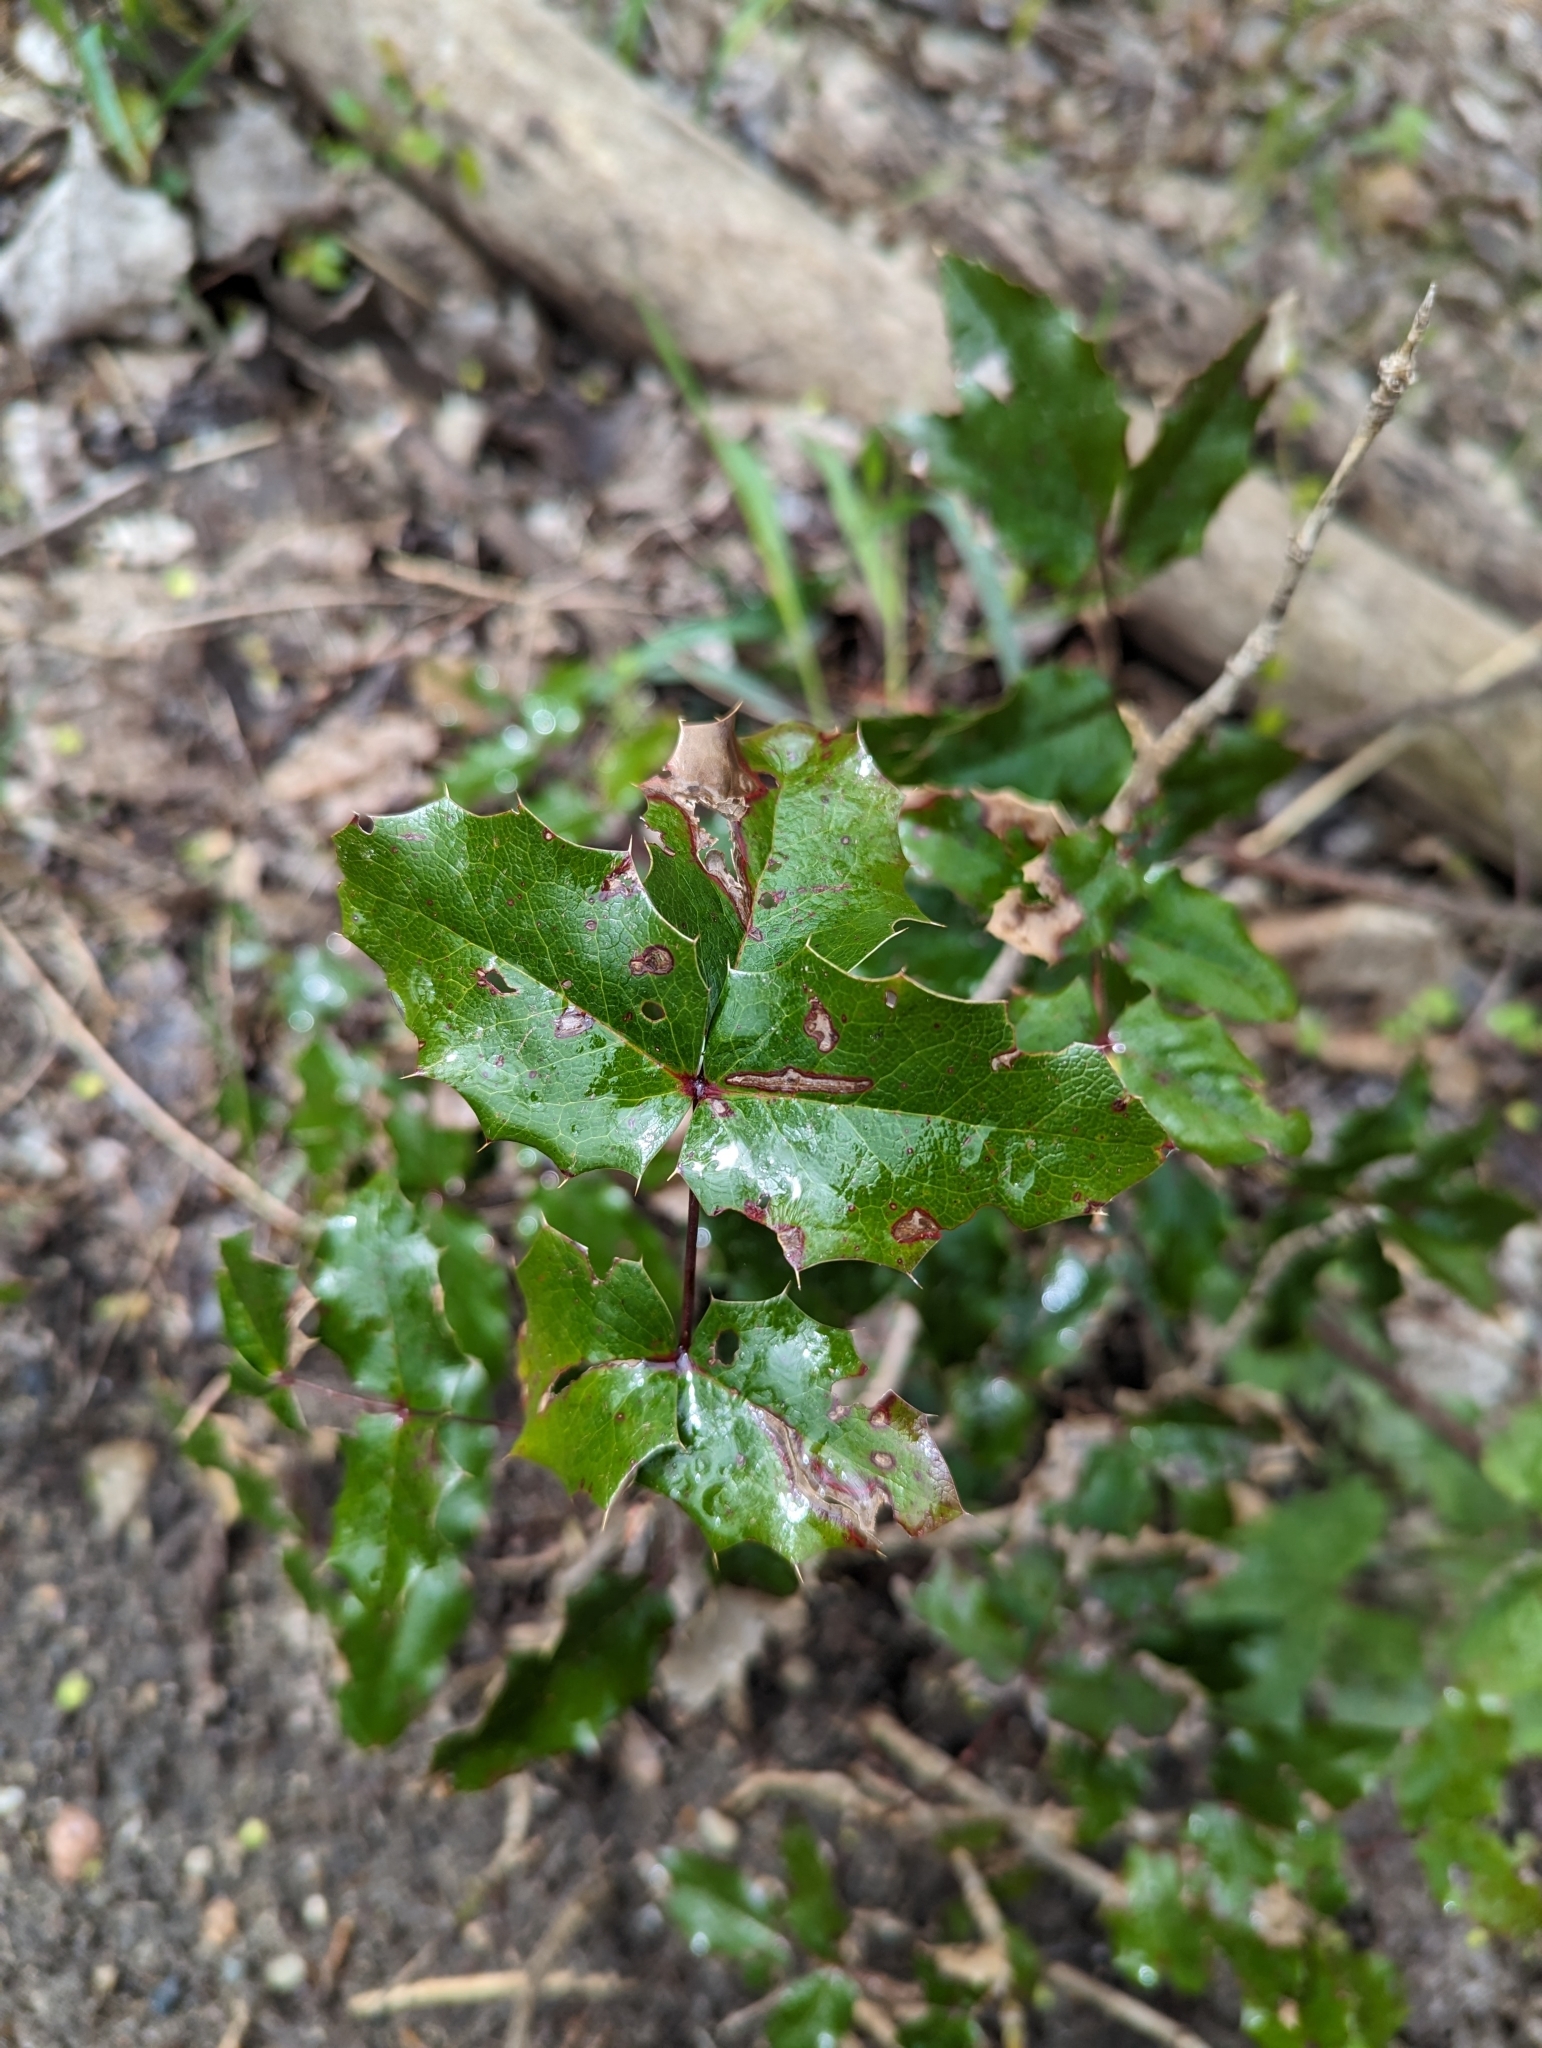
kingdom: Plantae
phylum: Tracheophyta
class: Magnoliopsida
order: Ranunculales
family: Berberidaceae
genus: Mahonia
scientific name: Mahonia aquifolium
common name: Oregon-grape
